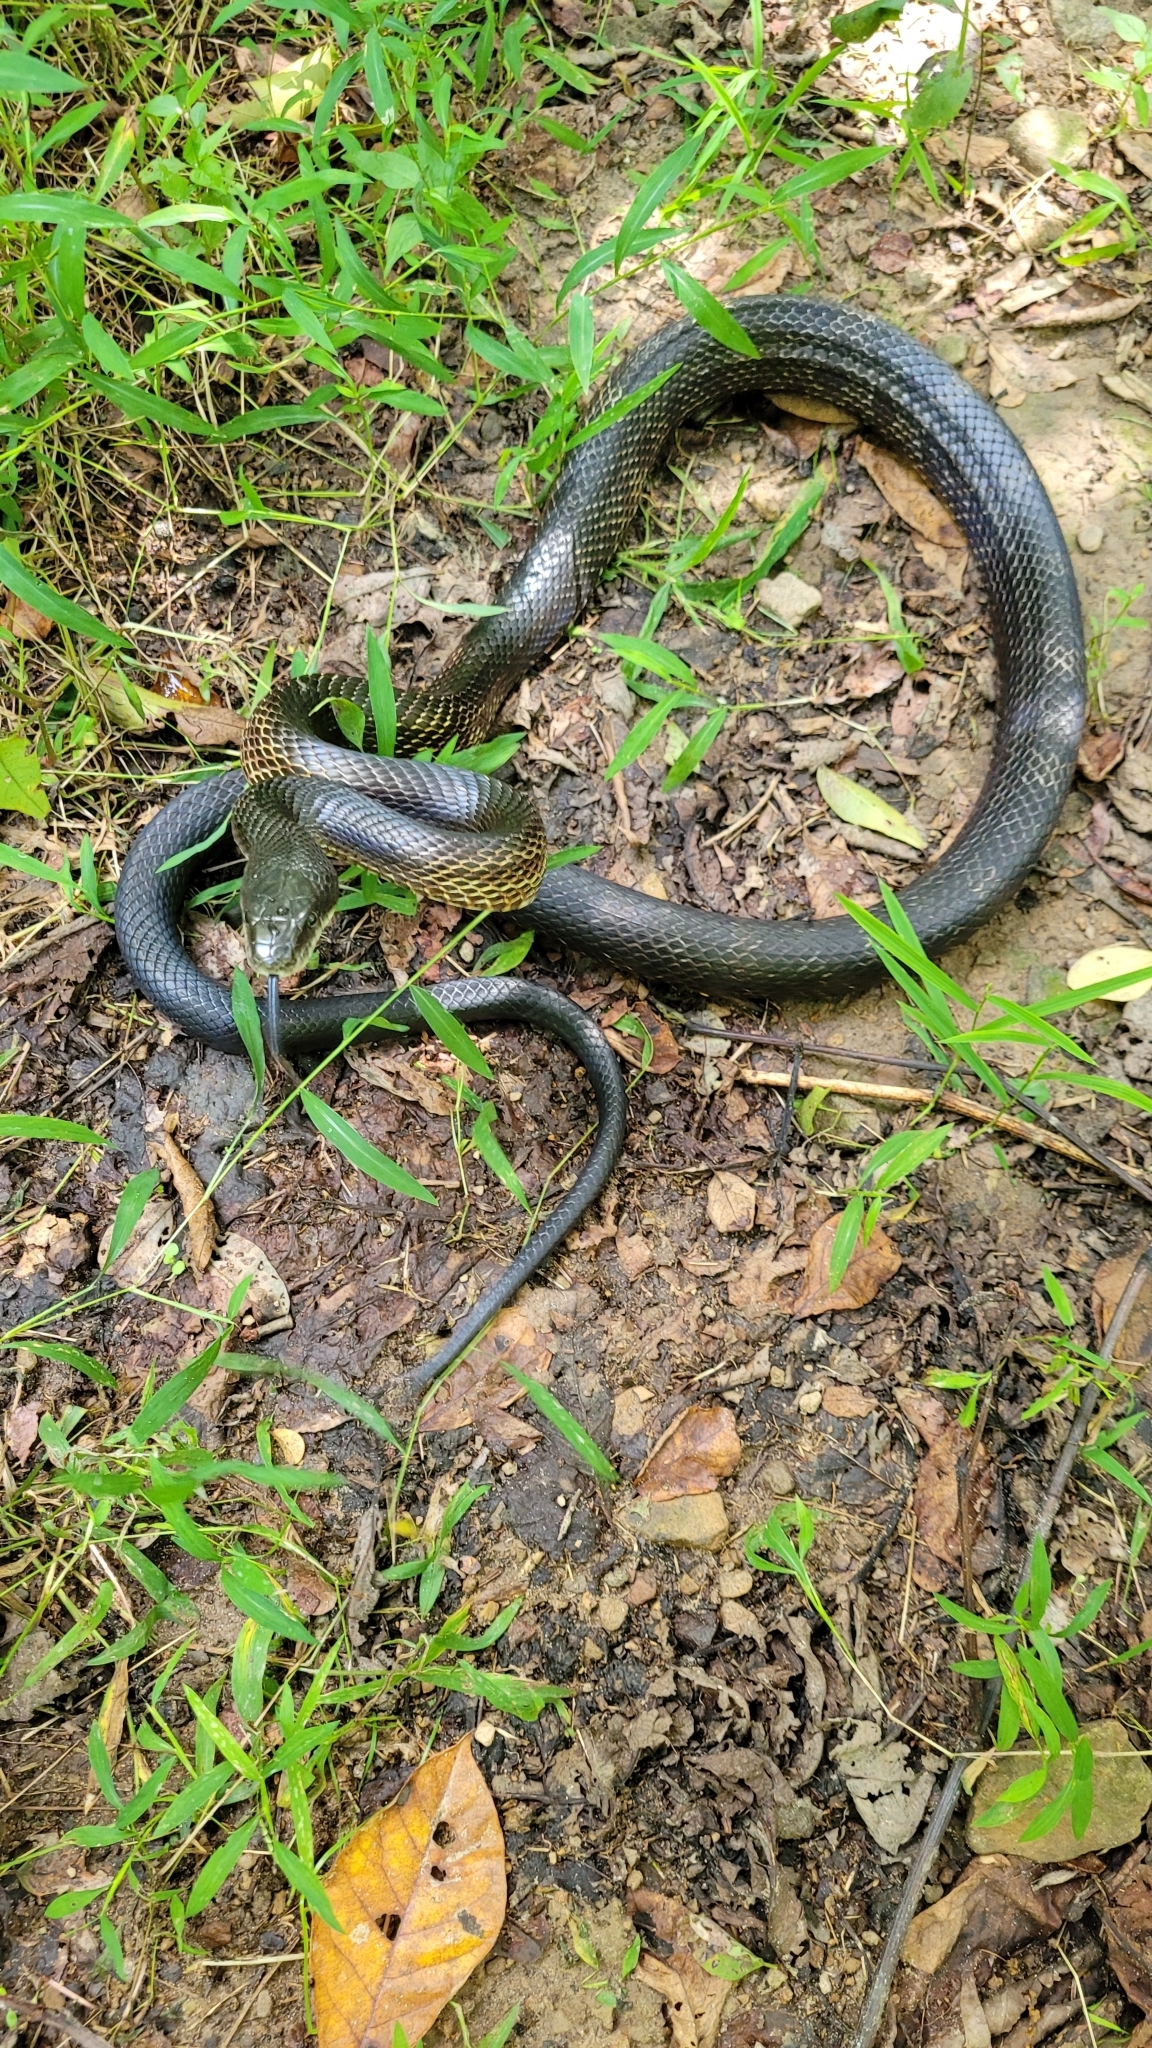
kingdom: Animalia
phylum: Chordata
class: Squamata
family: Colubridae
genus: Pantherophis
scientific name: Pantherophis spiloides
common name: Gray rat snake
